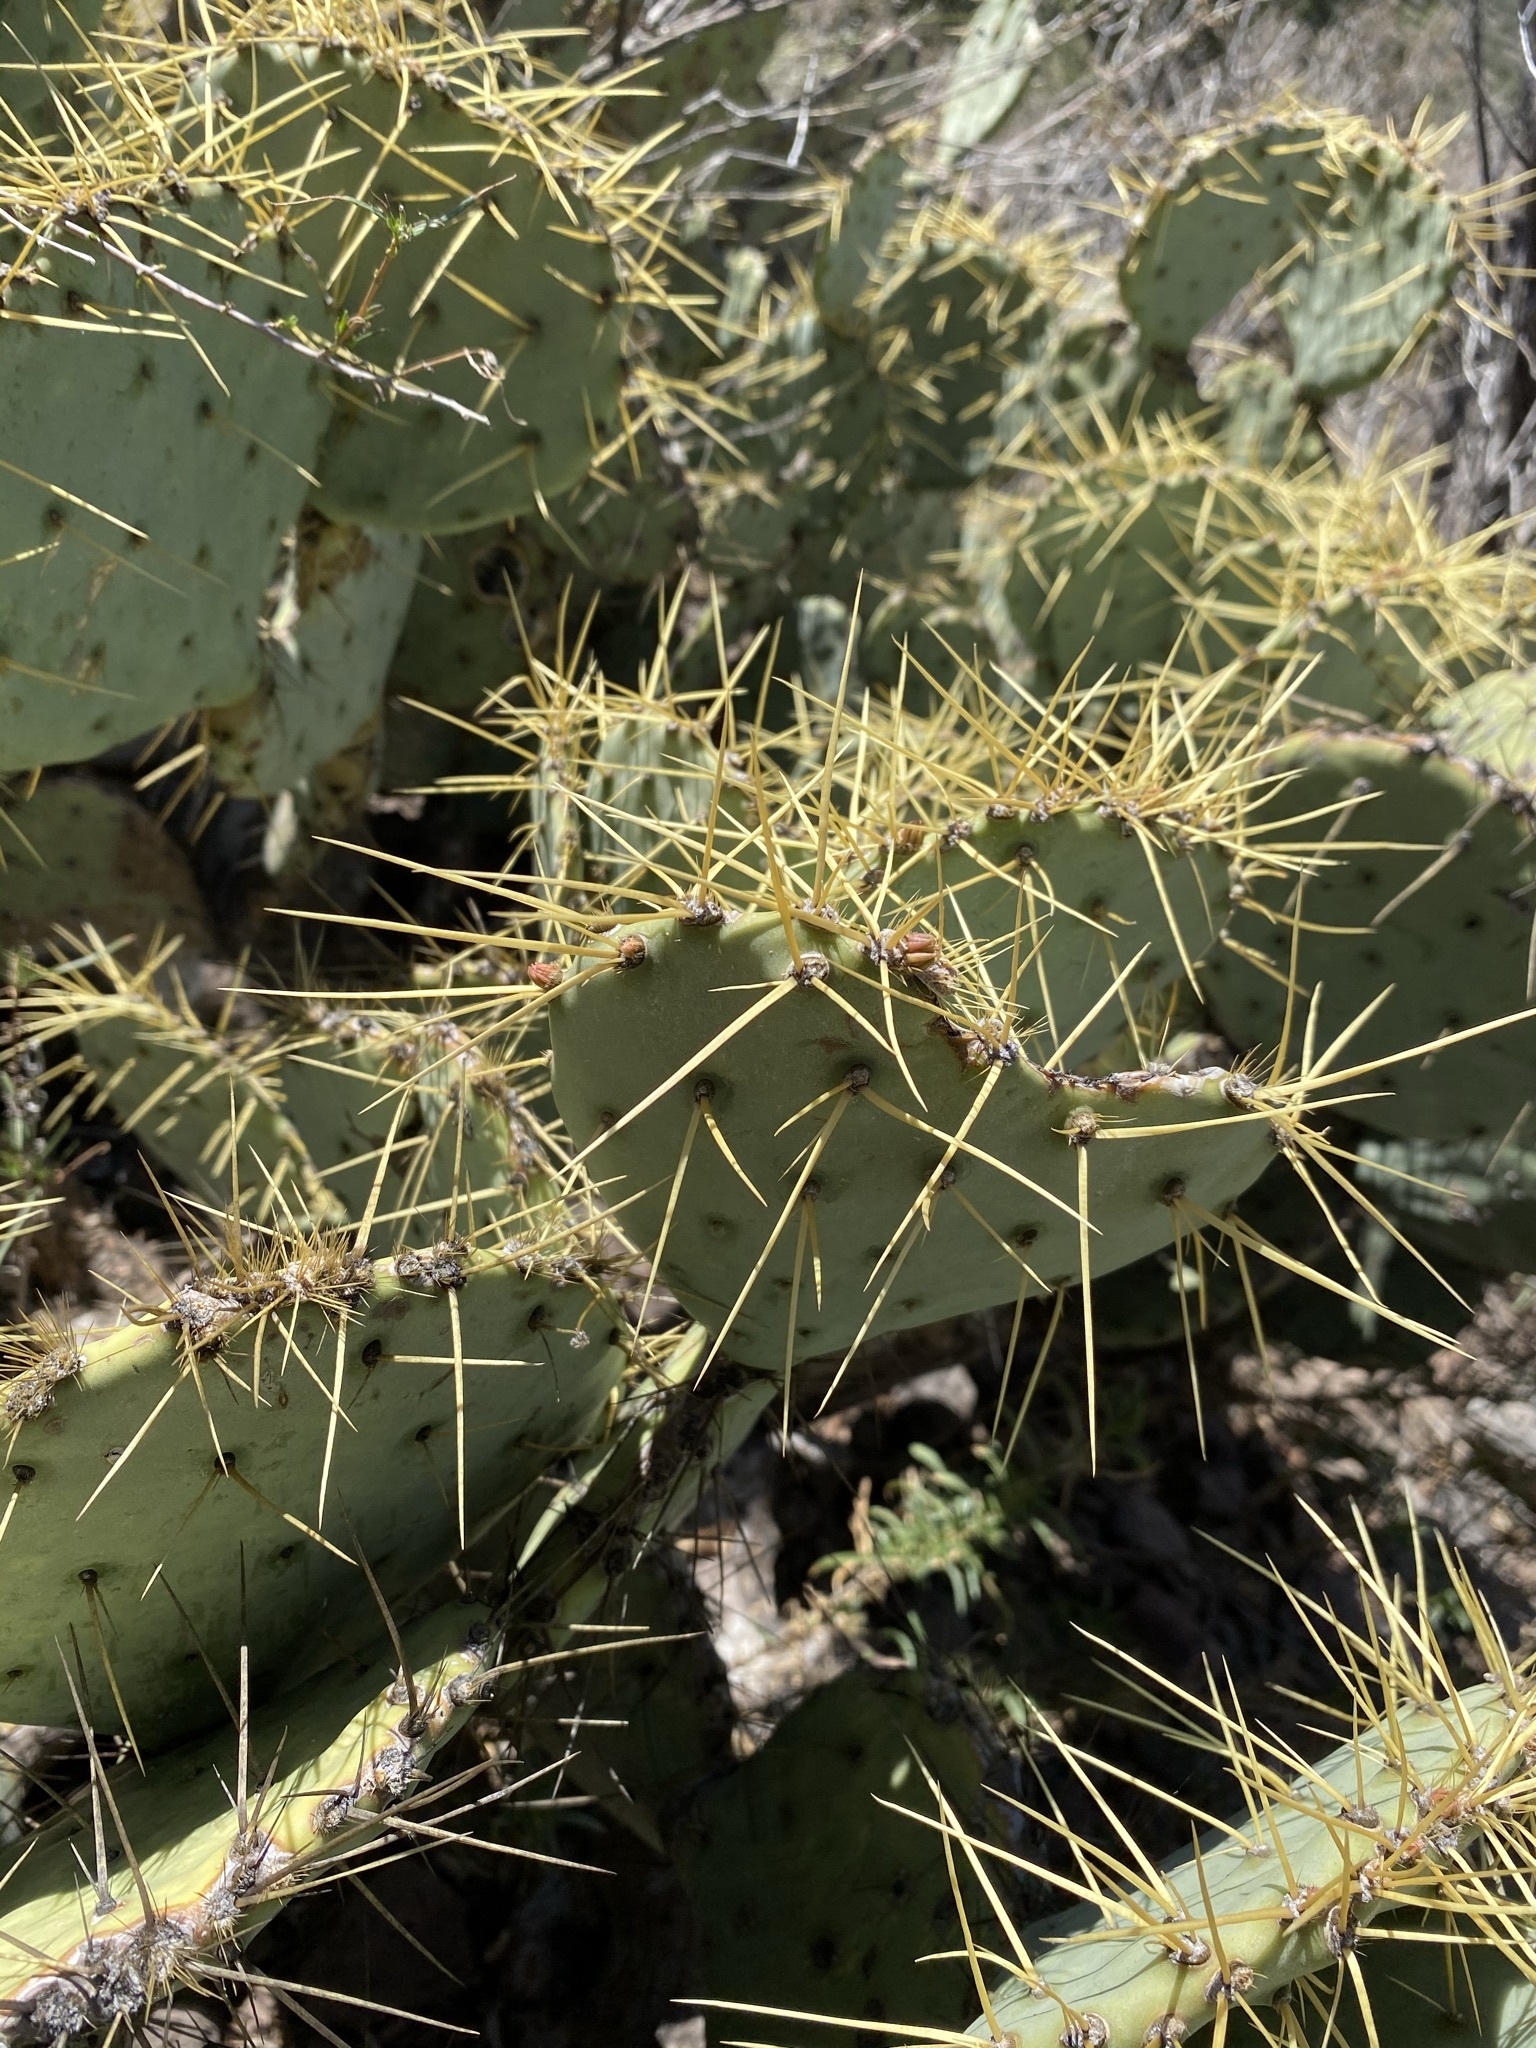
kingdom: Plantae
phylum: Tracheophyta
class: Magnoliopsida
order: Caryophyllales
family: Cactaceae
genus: Opuntia
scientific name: Opuntia chisosensis
